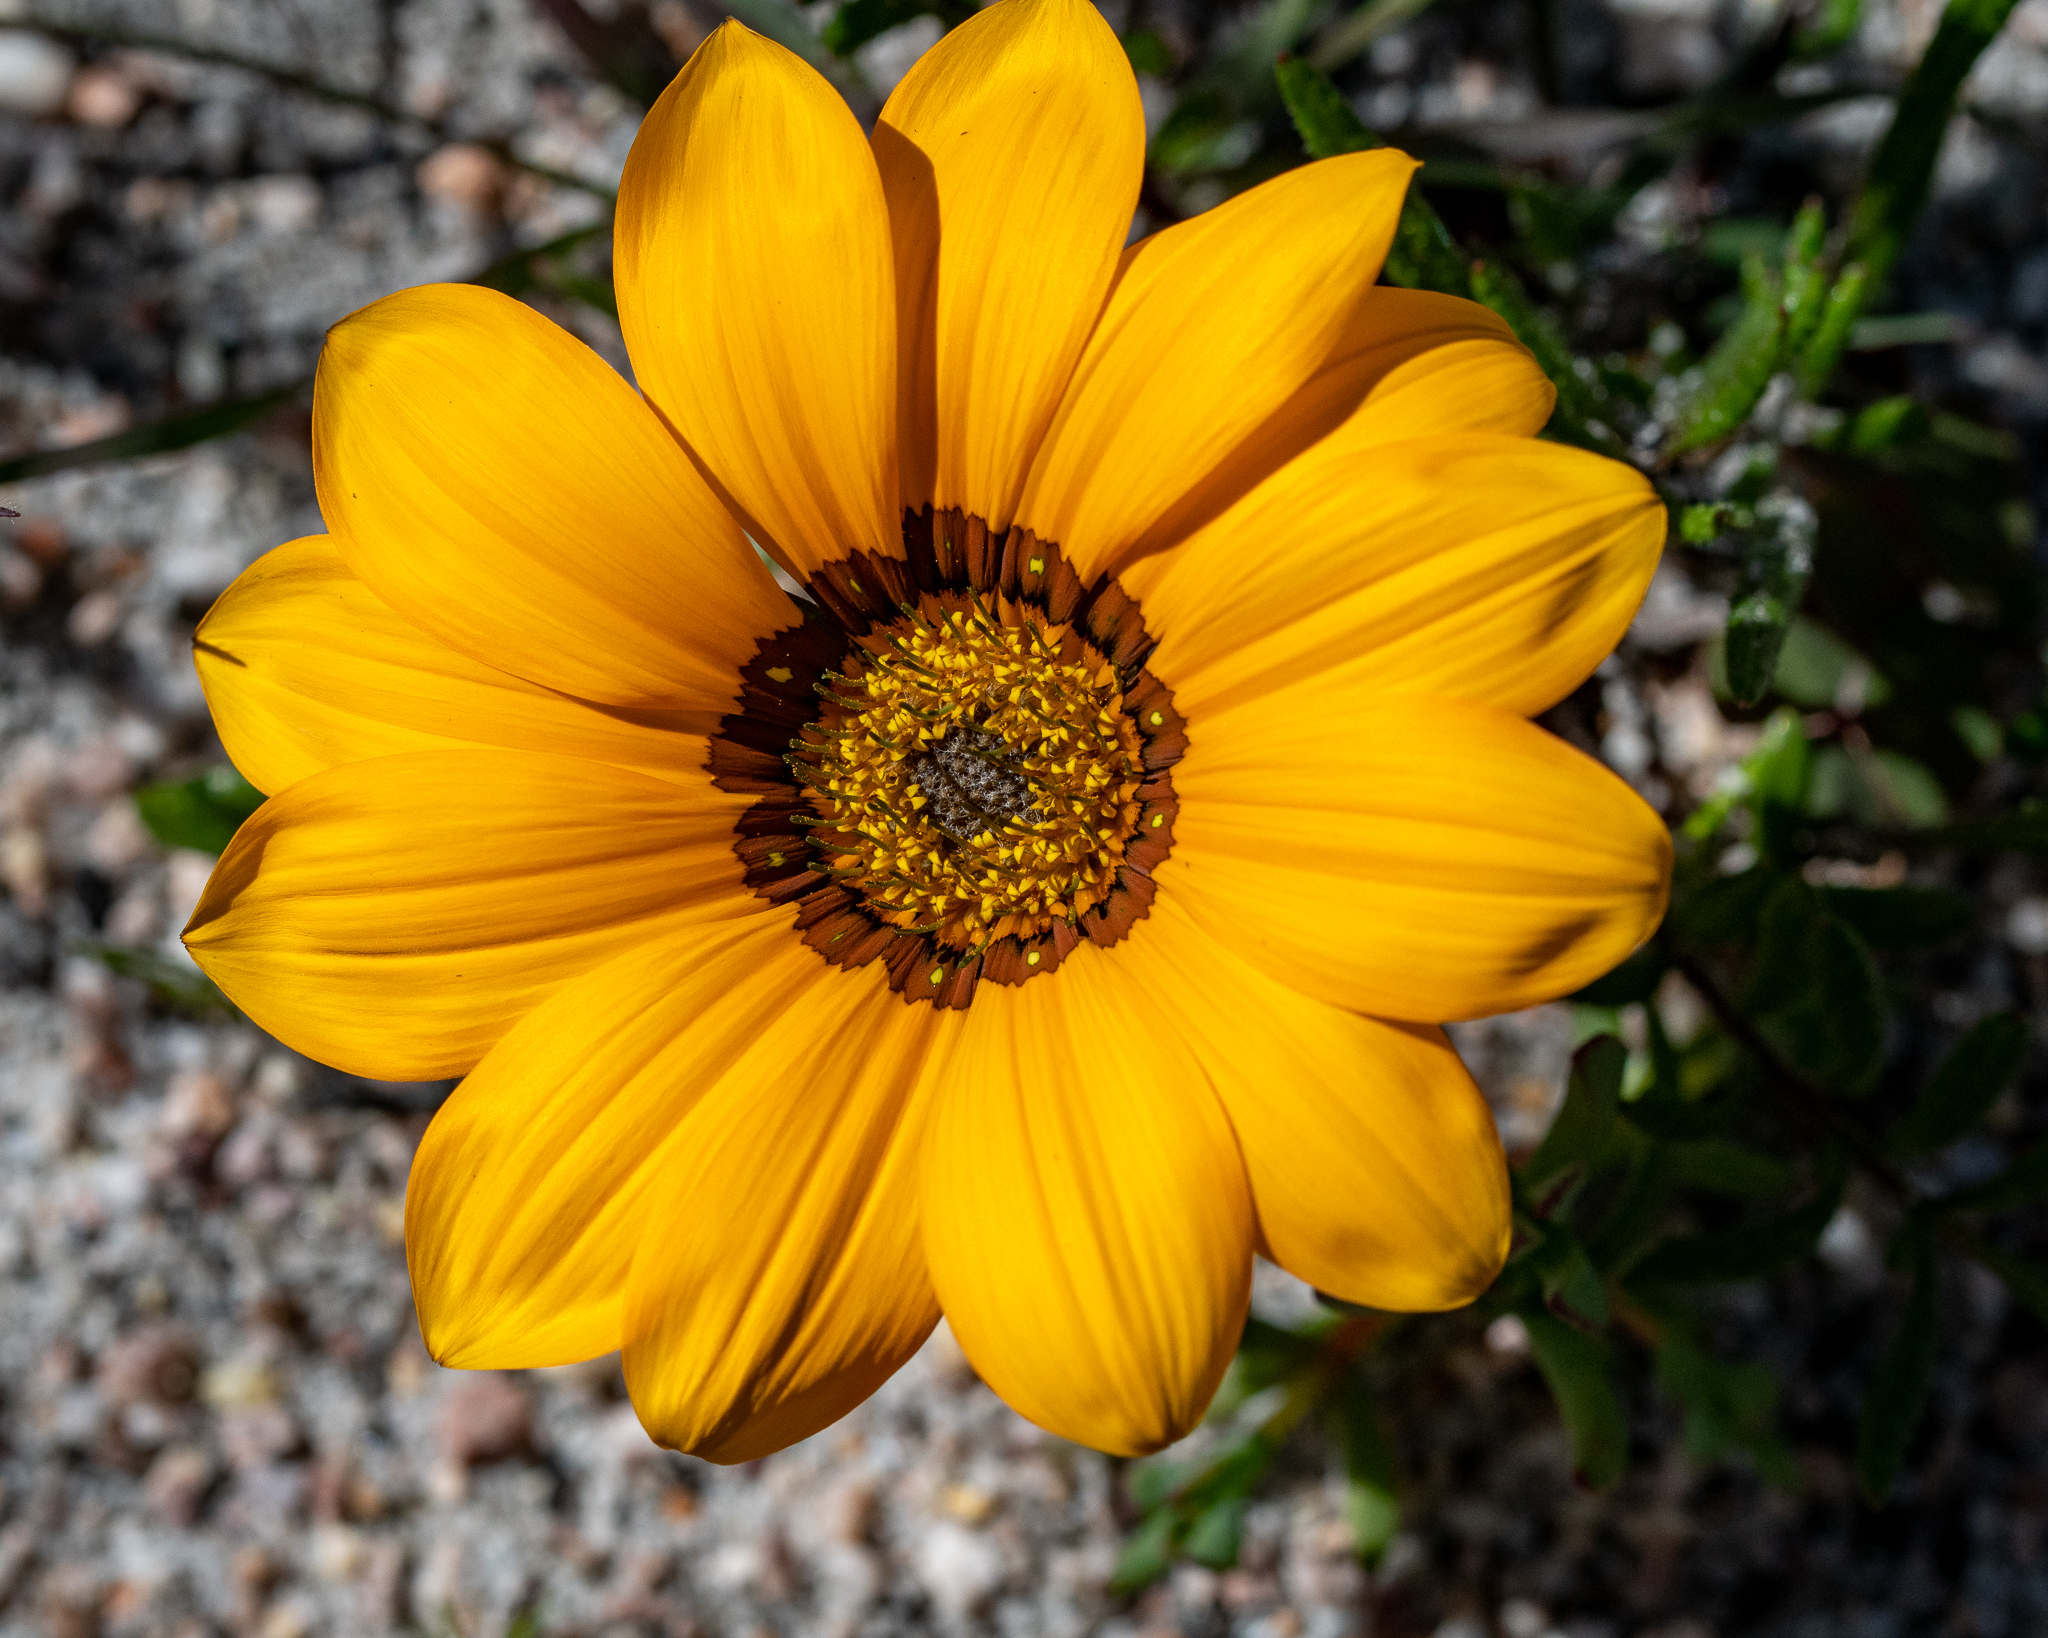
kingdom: Plantae
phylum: Tracheophyta
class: Magnoliopsida
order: Asterales
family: Asteraceae
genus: Gazania
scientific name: Gazania pectinata
